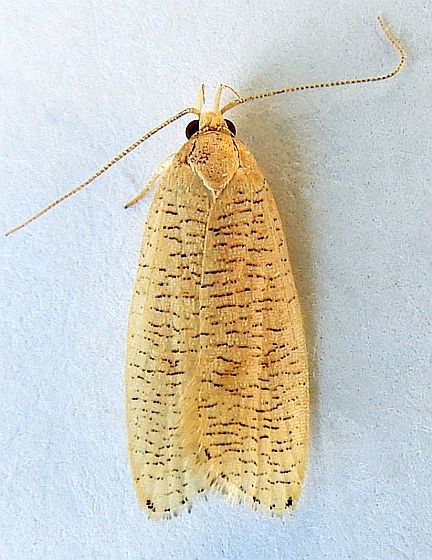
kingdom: Animalia
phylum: Arthropoda
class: Insecta
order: Lepidoptera
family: Depressariidae
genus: Psilocorsis
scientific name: Psilocorsis cirrhoptera
